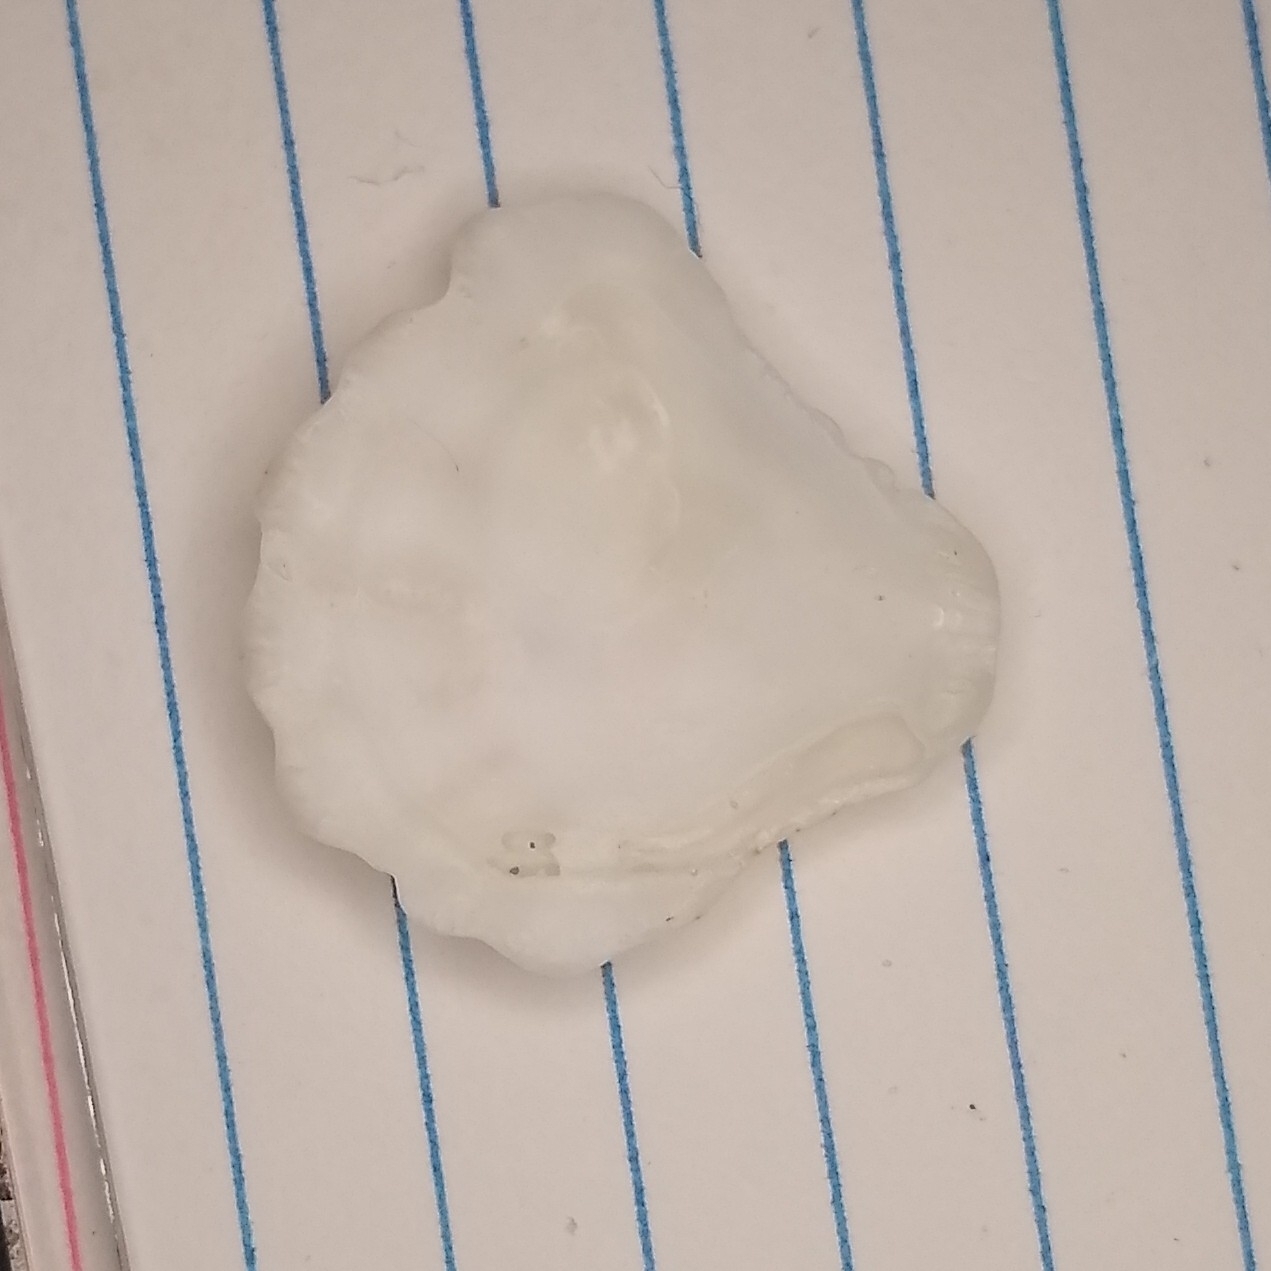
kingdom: Animalia
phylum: Mollusca
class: Bivalvia
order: Pectinida
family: Plicatulidae
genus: Plicatula
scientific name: Plicatula gibbosa
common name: Atlantic kitten's paw
